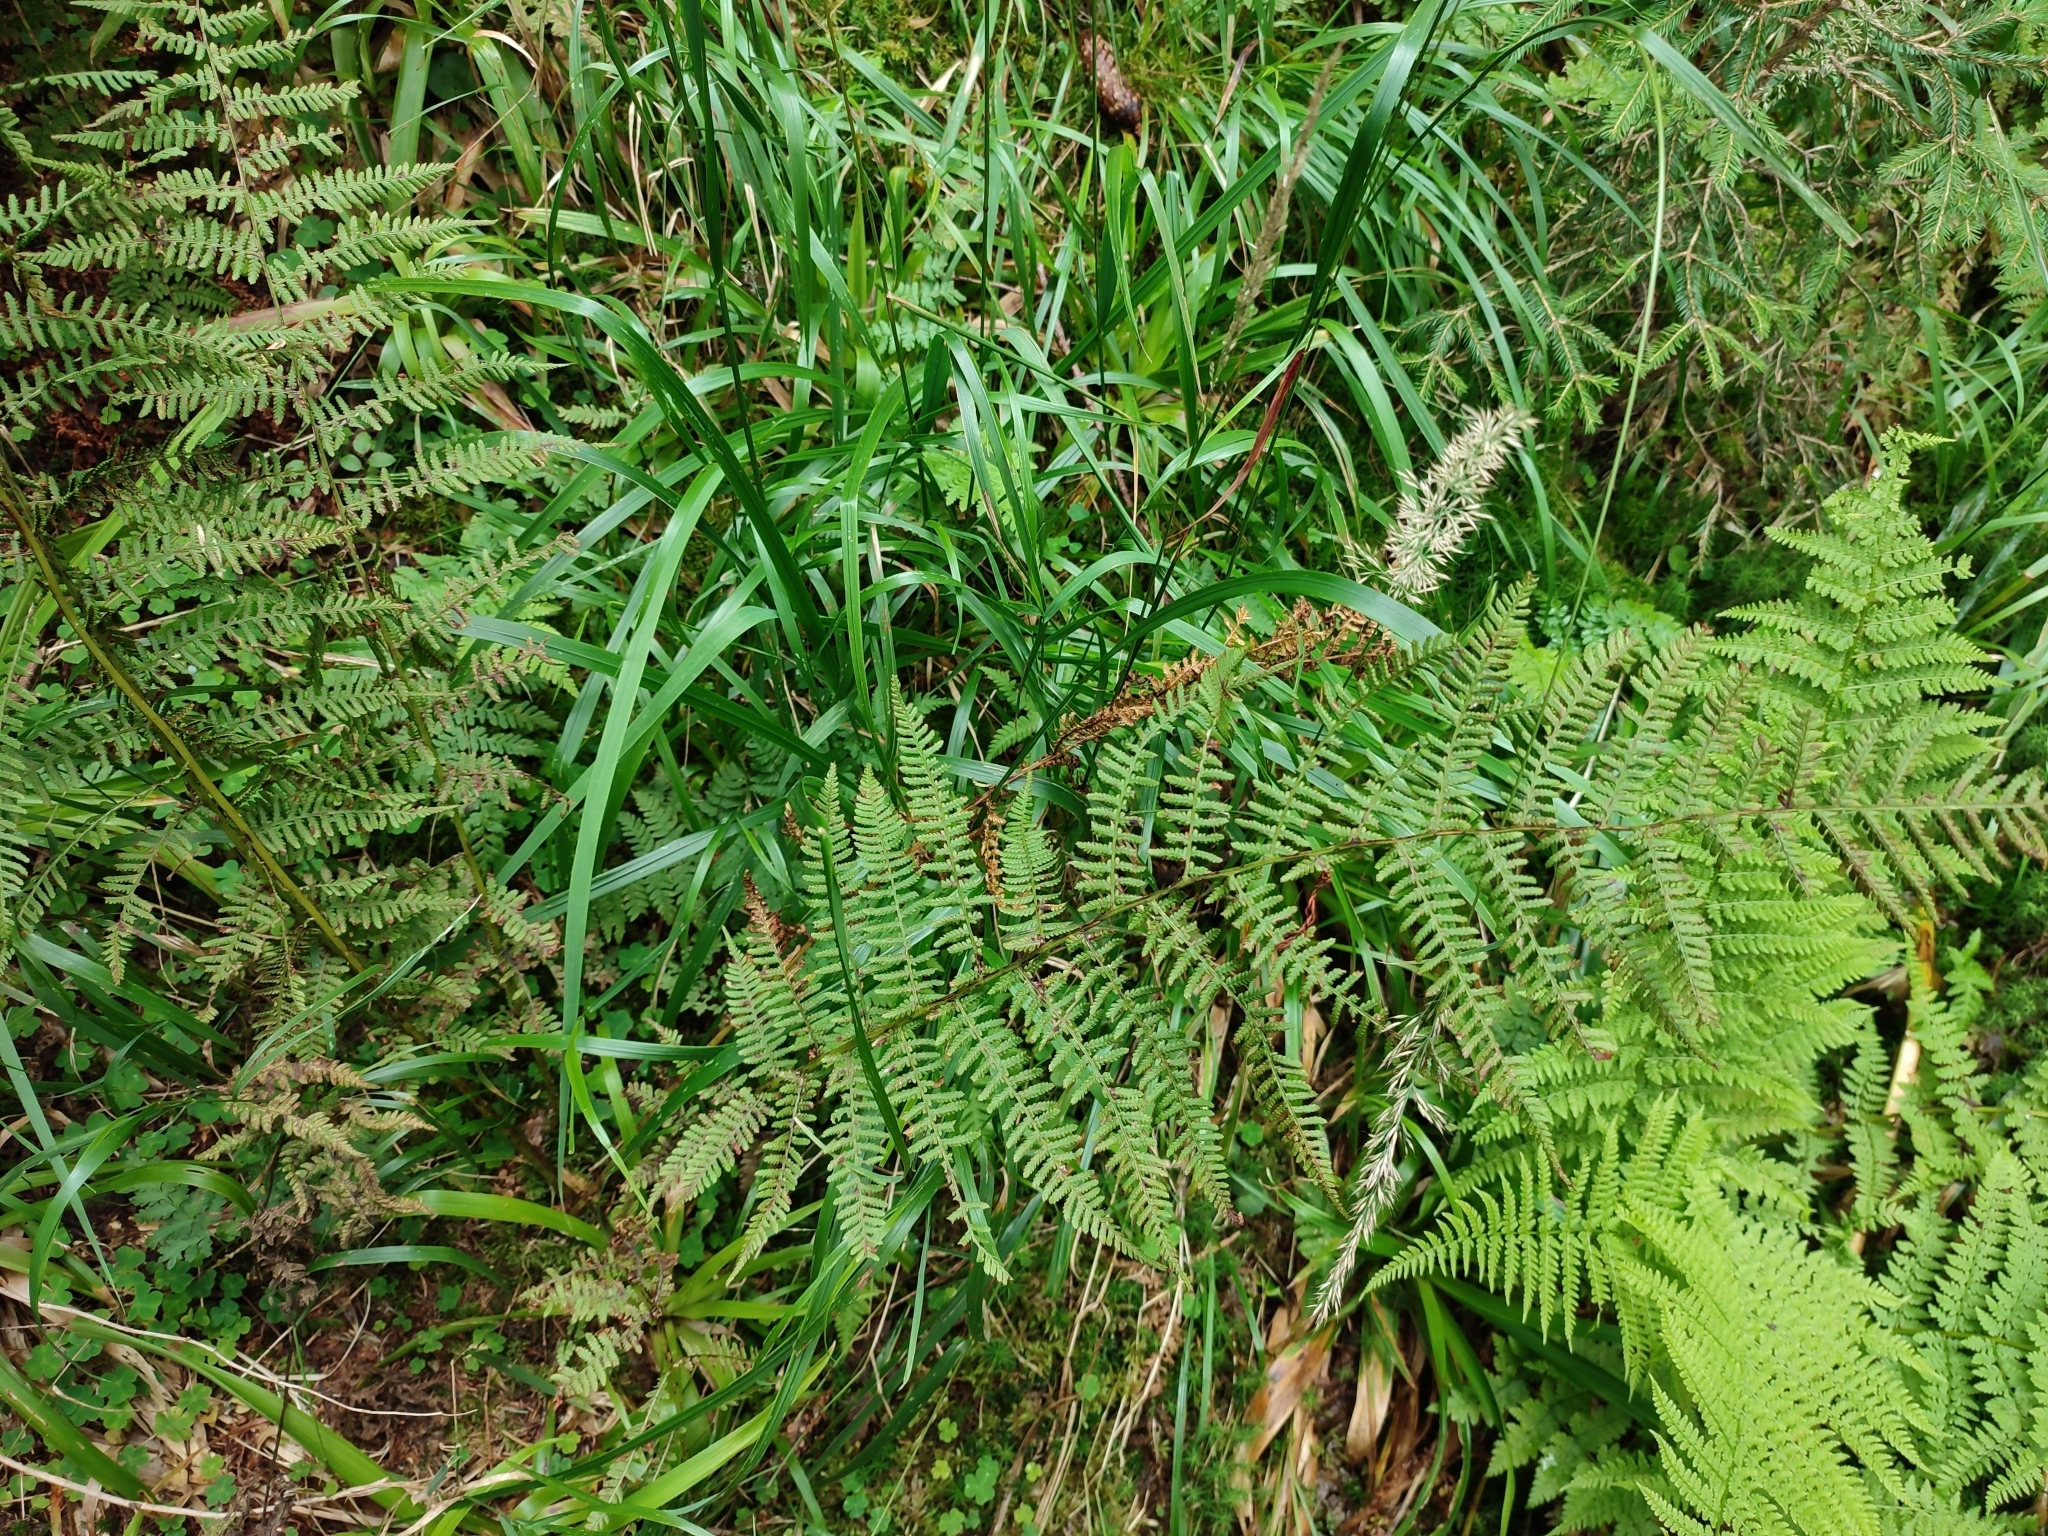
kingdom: Plantae
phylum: Tracheophyta
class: Polypodiopsida
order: Polypodiales
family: Athyriaceae
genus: Athyrium
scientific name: Athyrium filix-femina
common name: Lady fern
